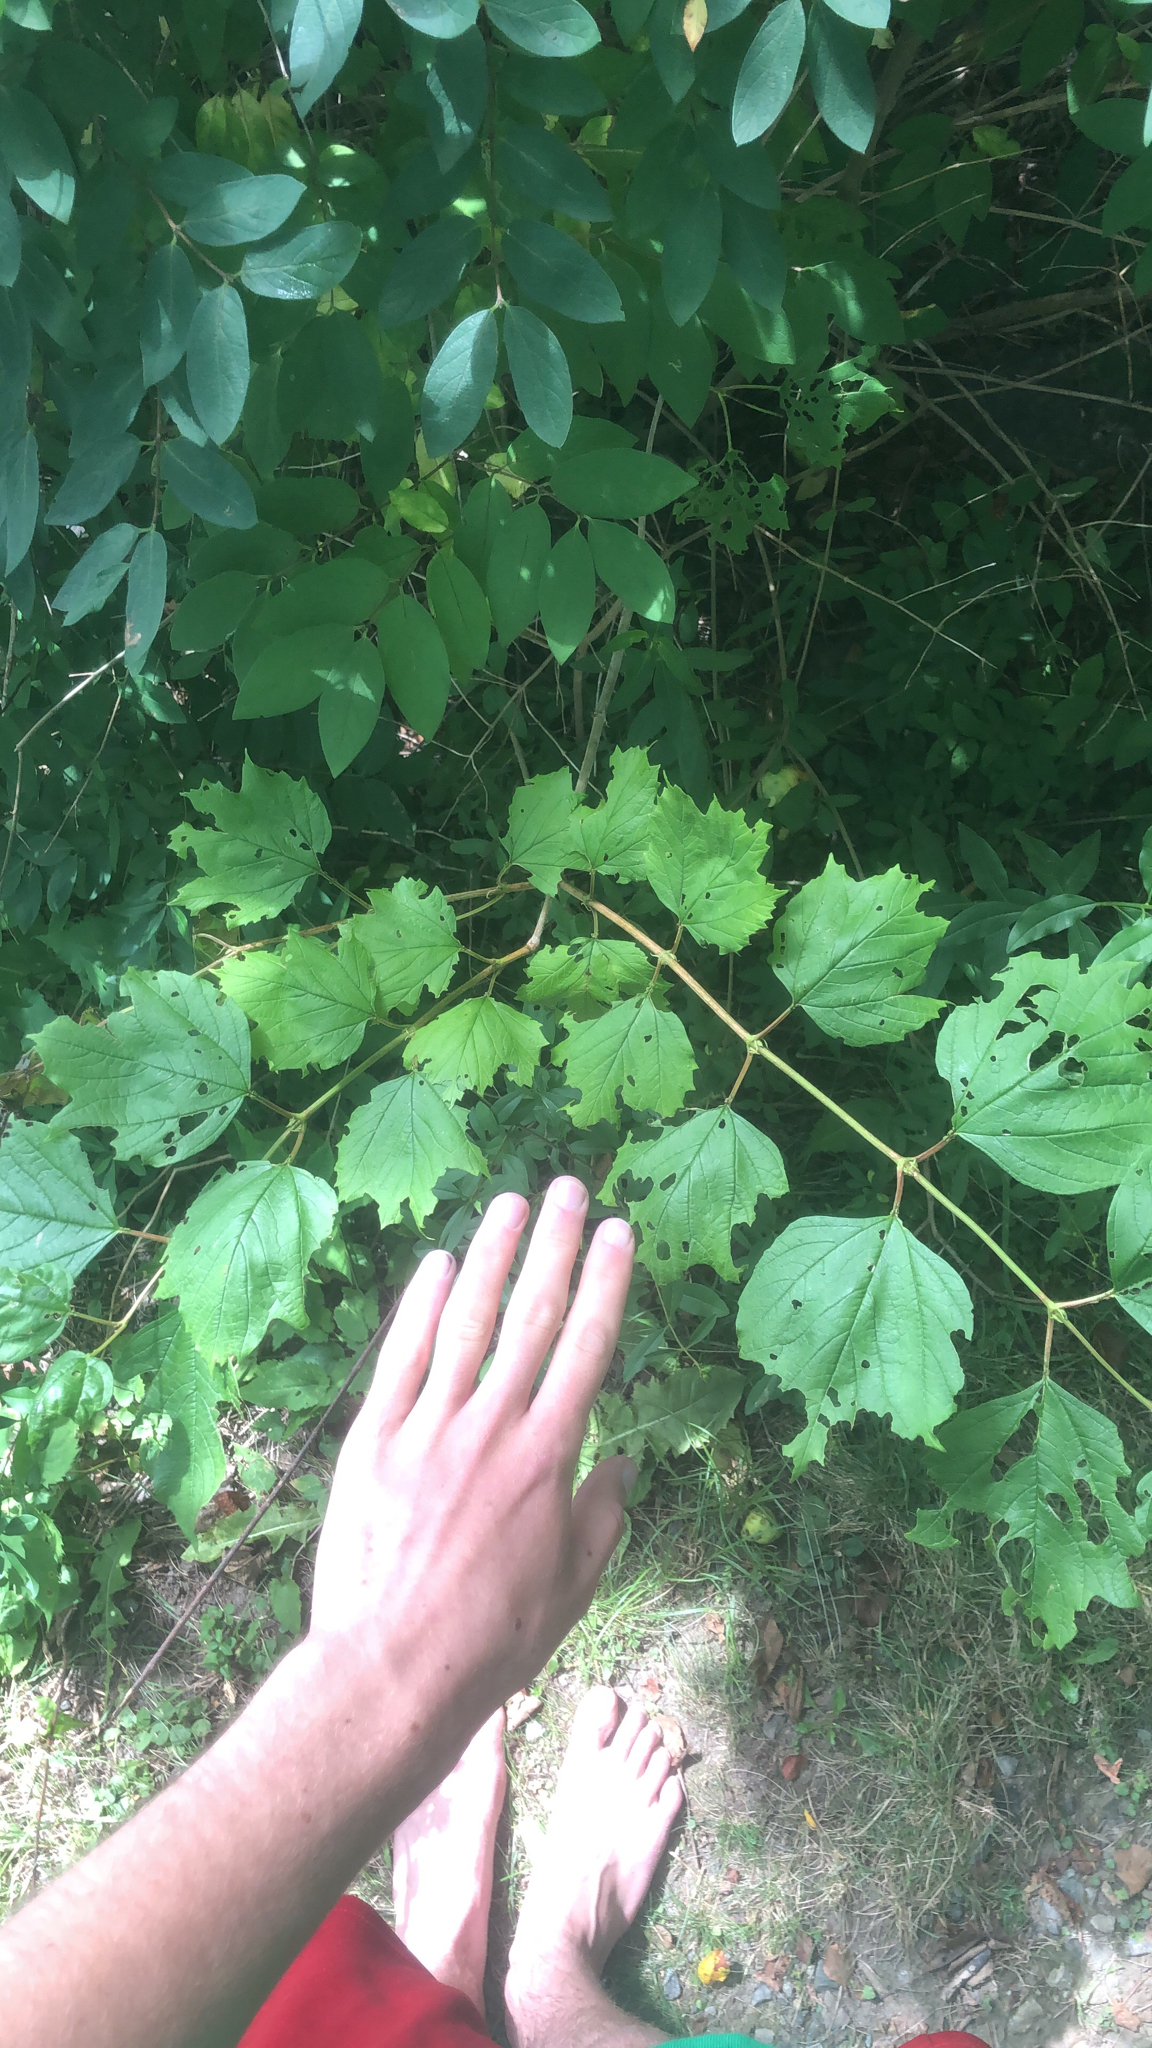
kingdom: Plantae
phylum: Tracheophyta
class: Magnoliopsida
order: Dipsacales
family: Viburnaceae
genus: Viburnum
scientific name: Viburnum opulus
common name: Guelder-rose
